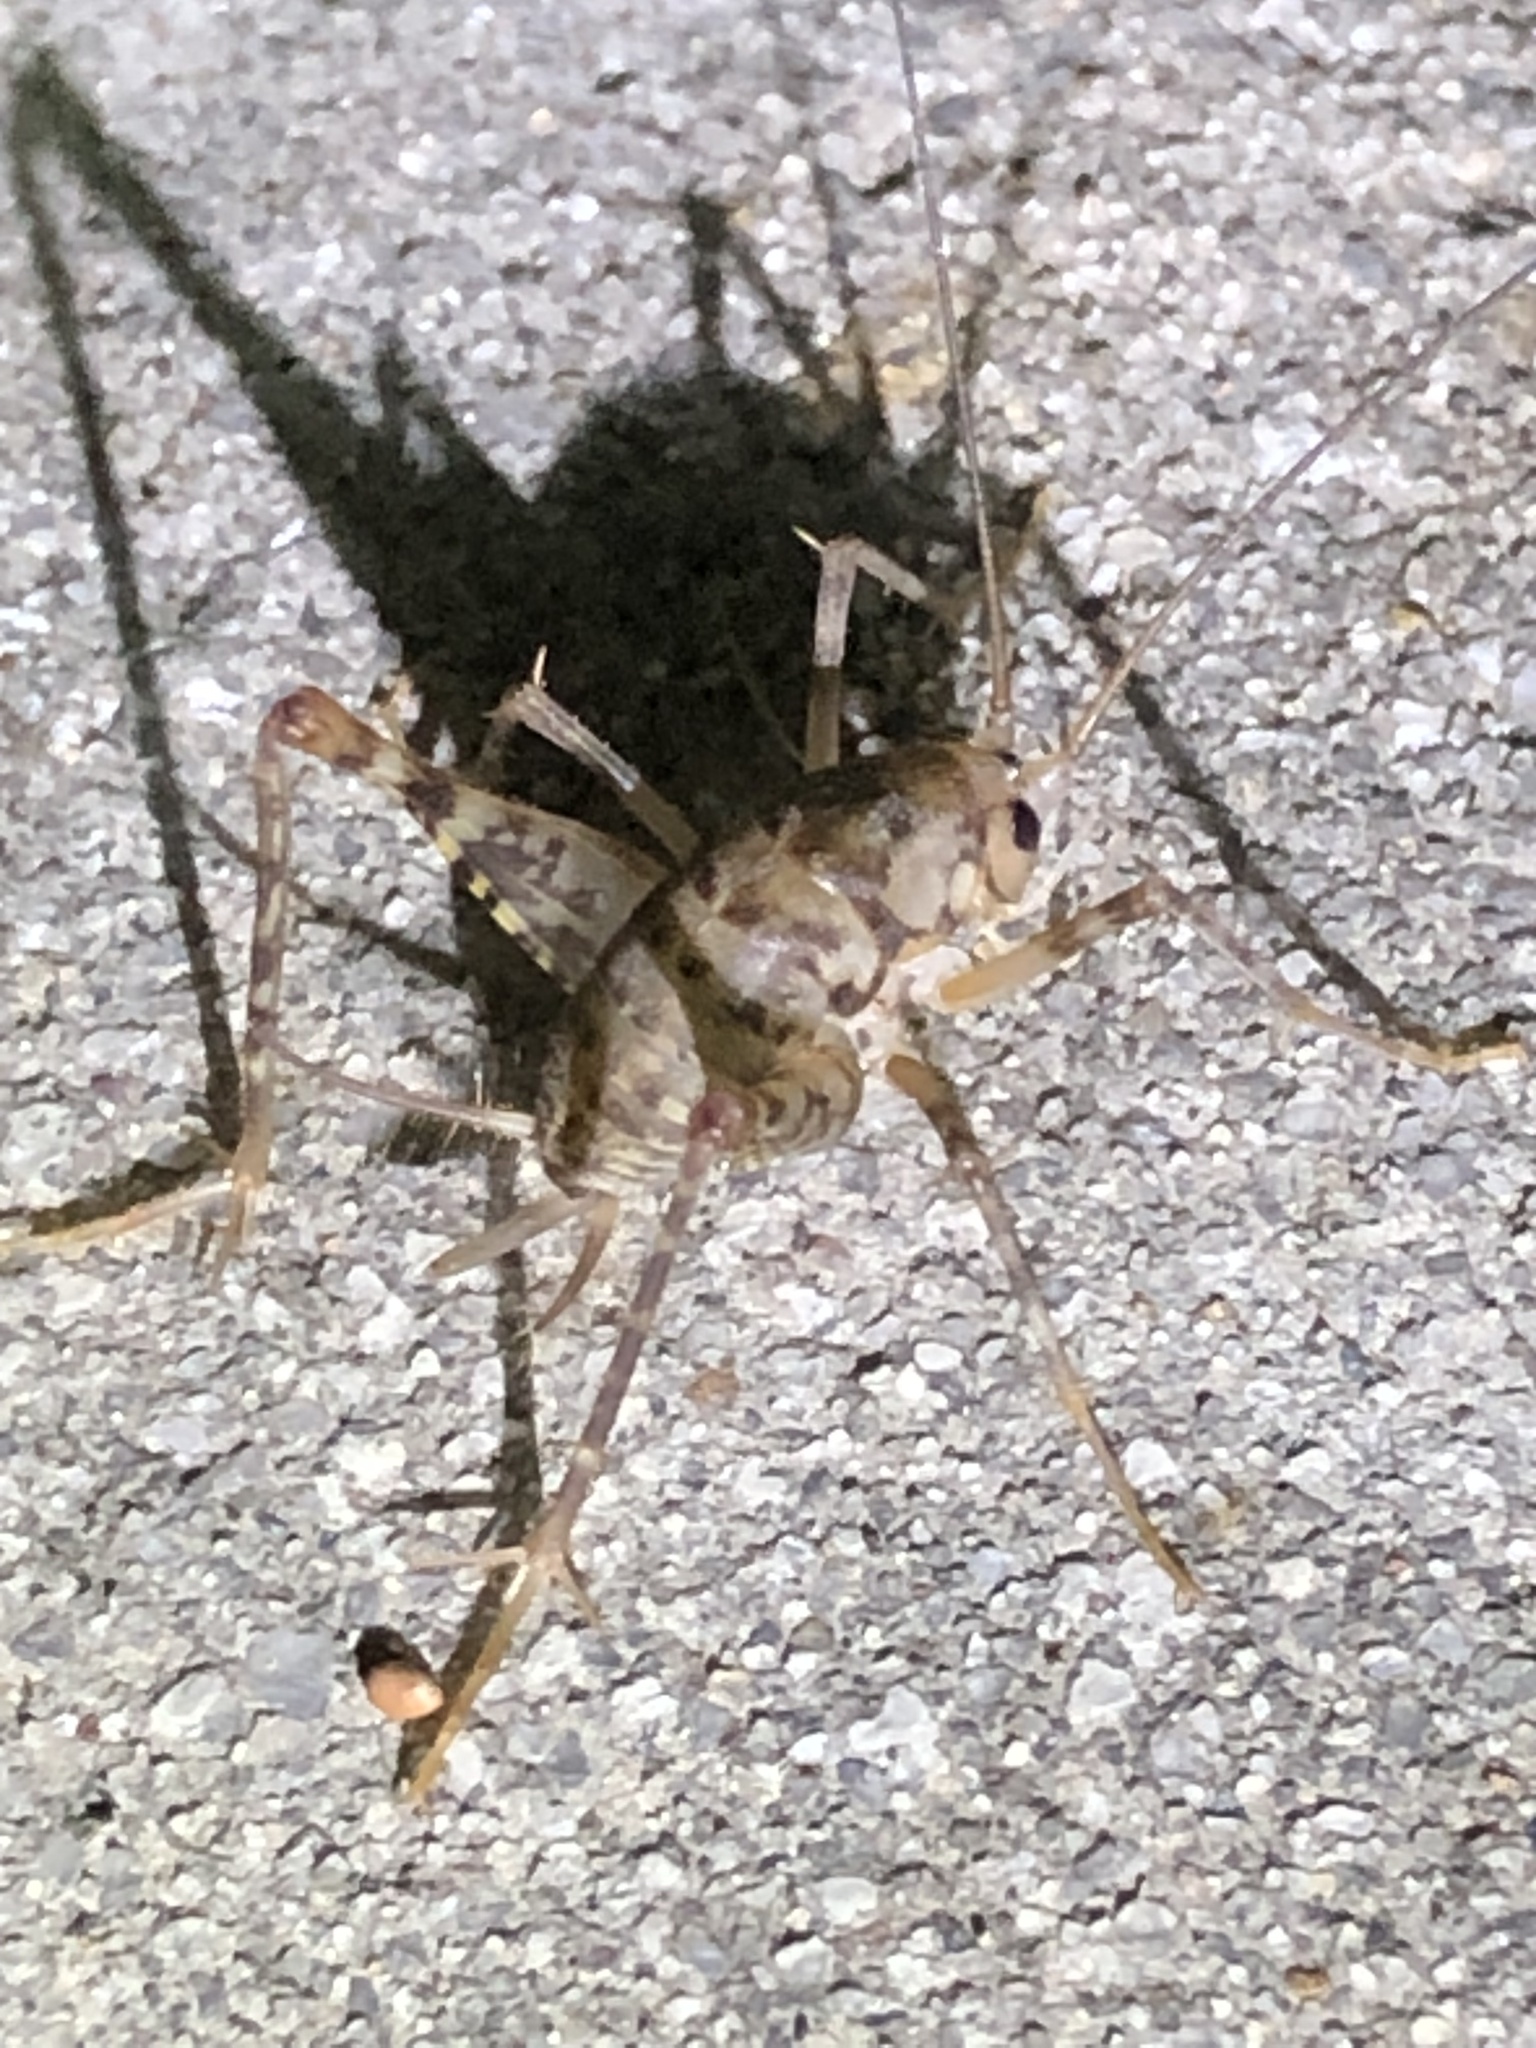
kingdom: Animalia
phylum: Arthropoda
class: Insecta
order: Orthoptera
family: Rhaphidophoridae
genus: Tachycines
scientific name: Tachycines asynamorus
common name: Greenhouse camel cricket
